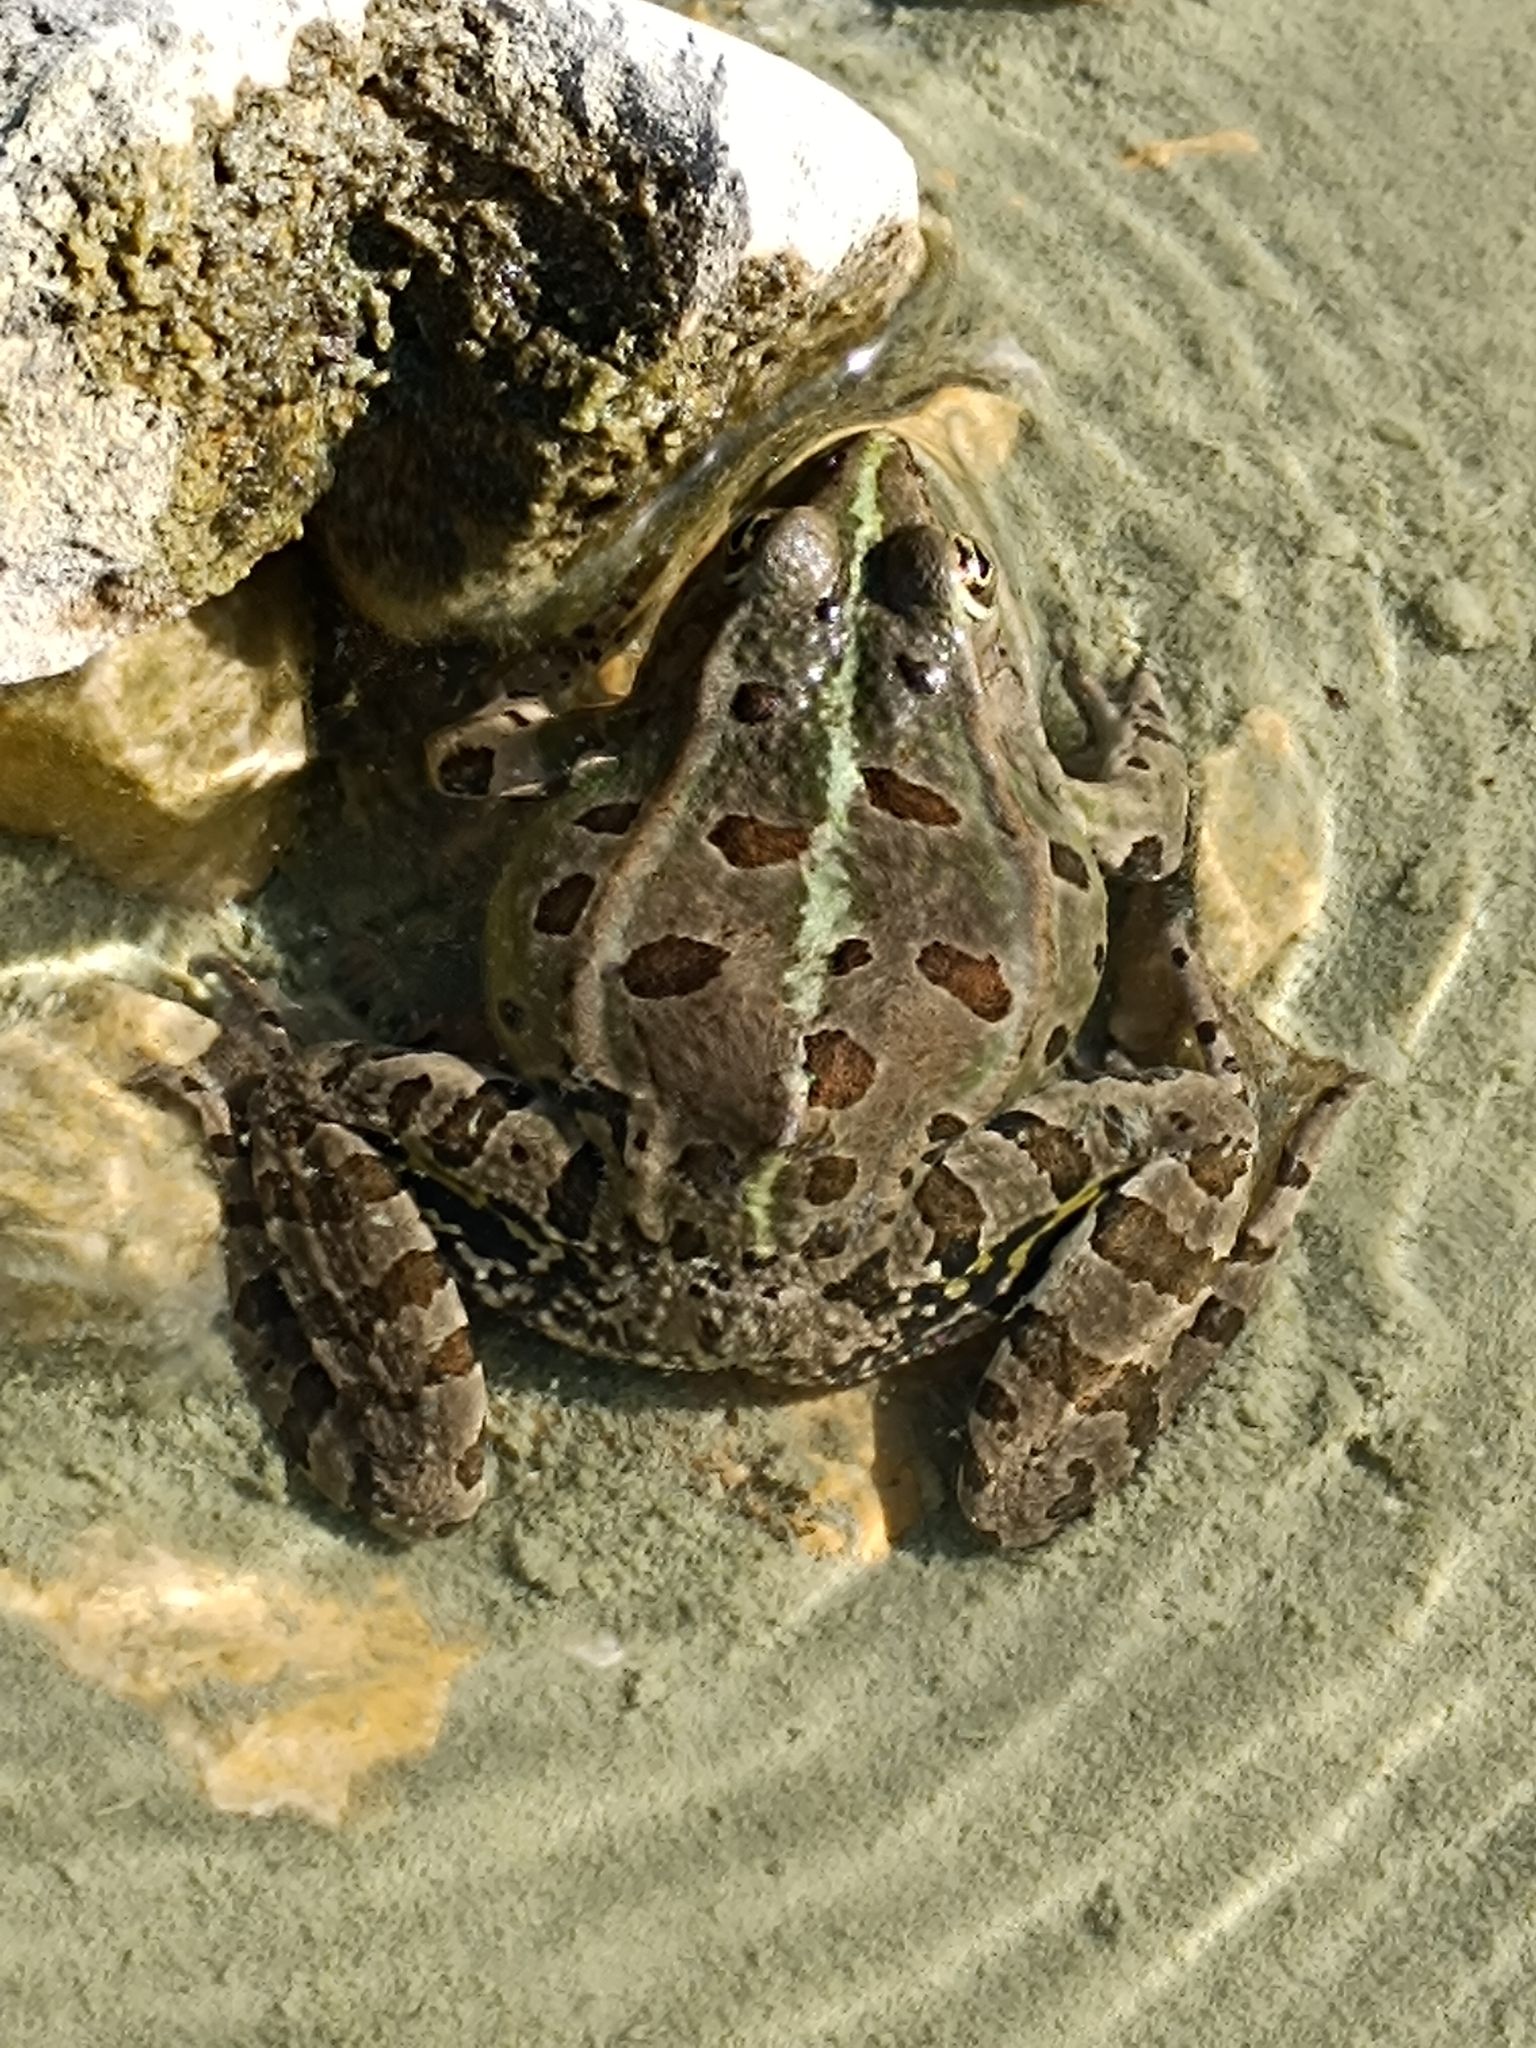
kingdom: Animalia
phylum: Chordata
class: Amphibia
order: Anura
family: Ranidae
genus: Pelophylax
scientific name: Pelophylax ridibundus
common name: Marsh frog
